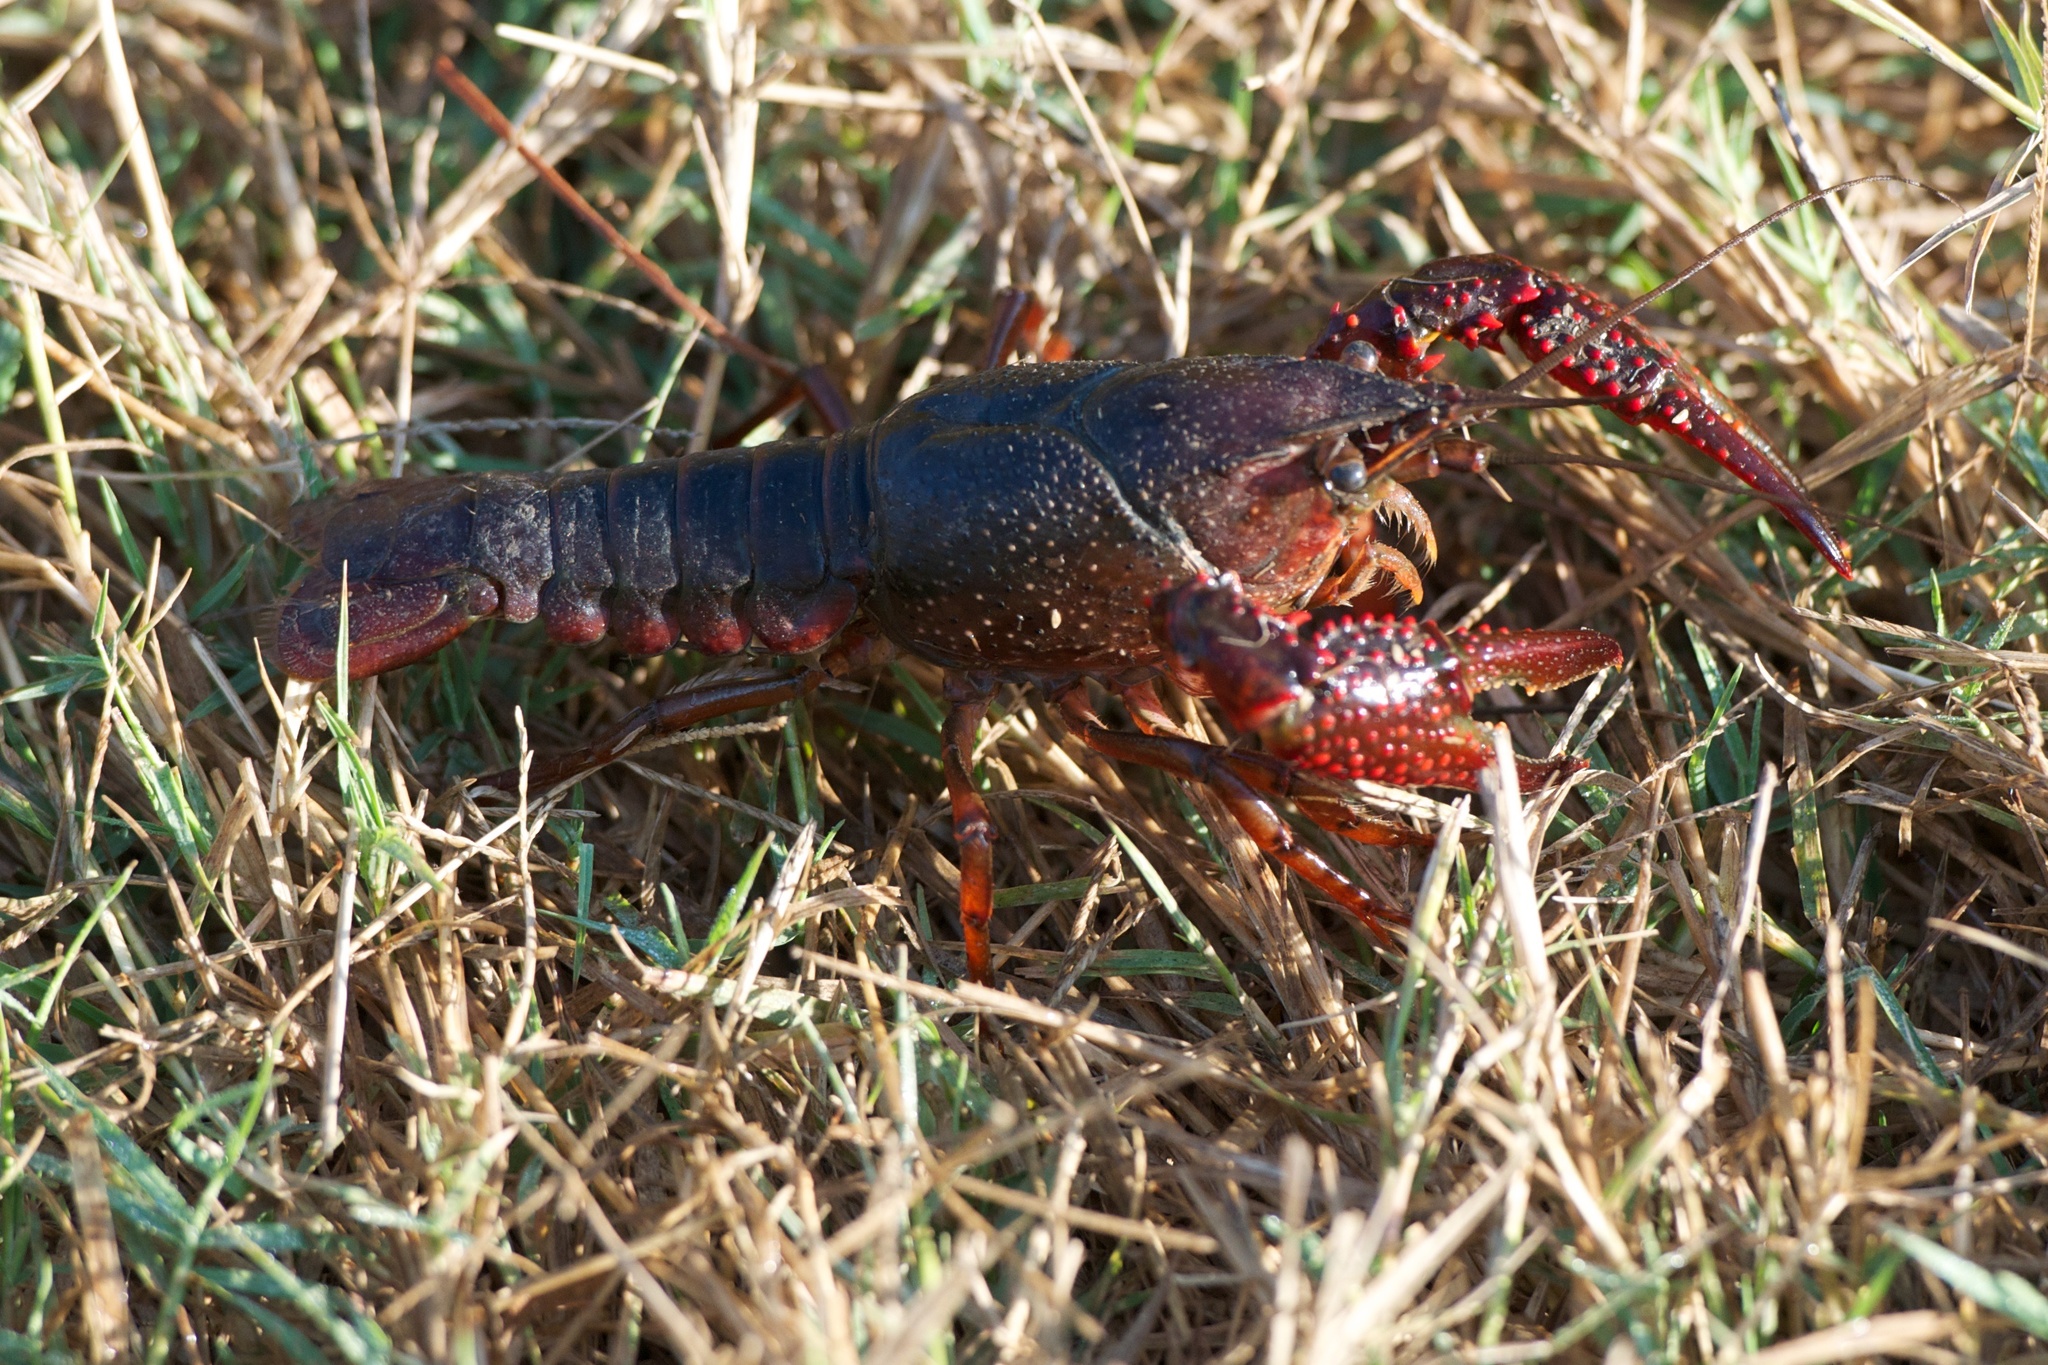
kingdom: Animalia
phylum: Arthropoda
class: Malacostraca
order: Decapoda
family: Cambaridae
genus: Procambarus
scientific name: Procambarus clarkii
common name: Red swamp crayfish
